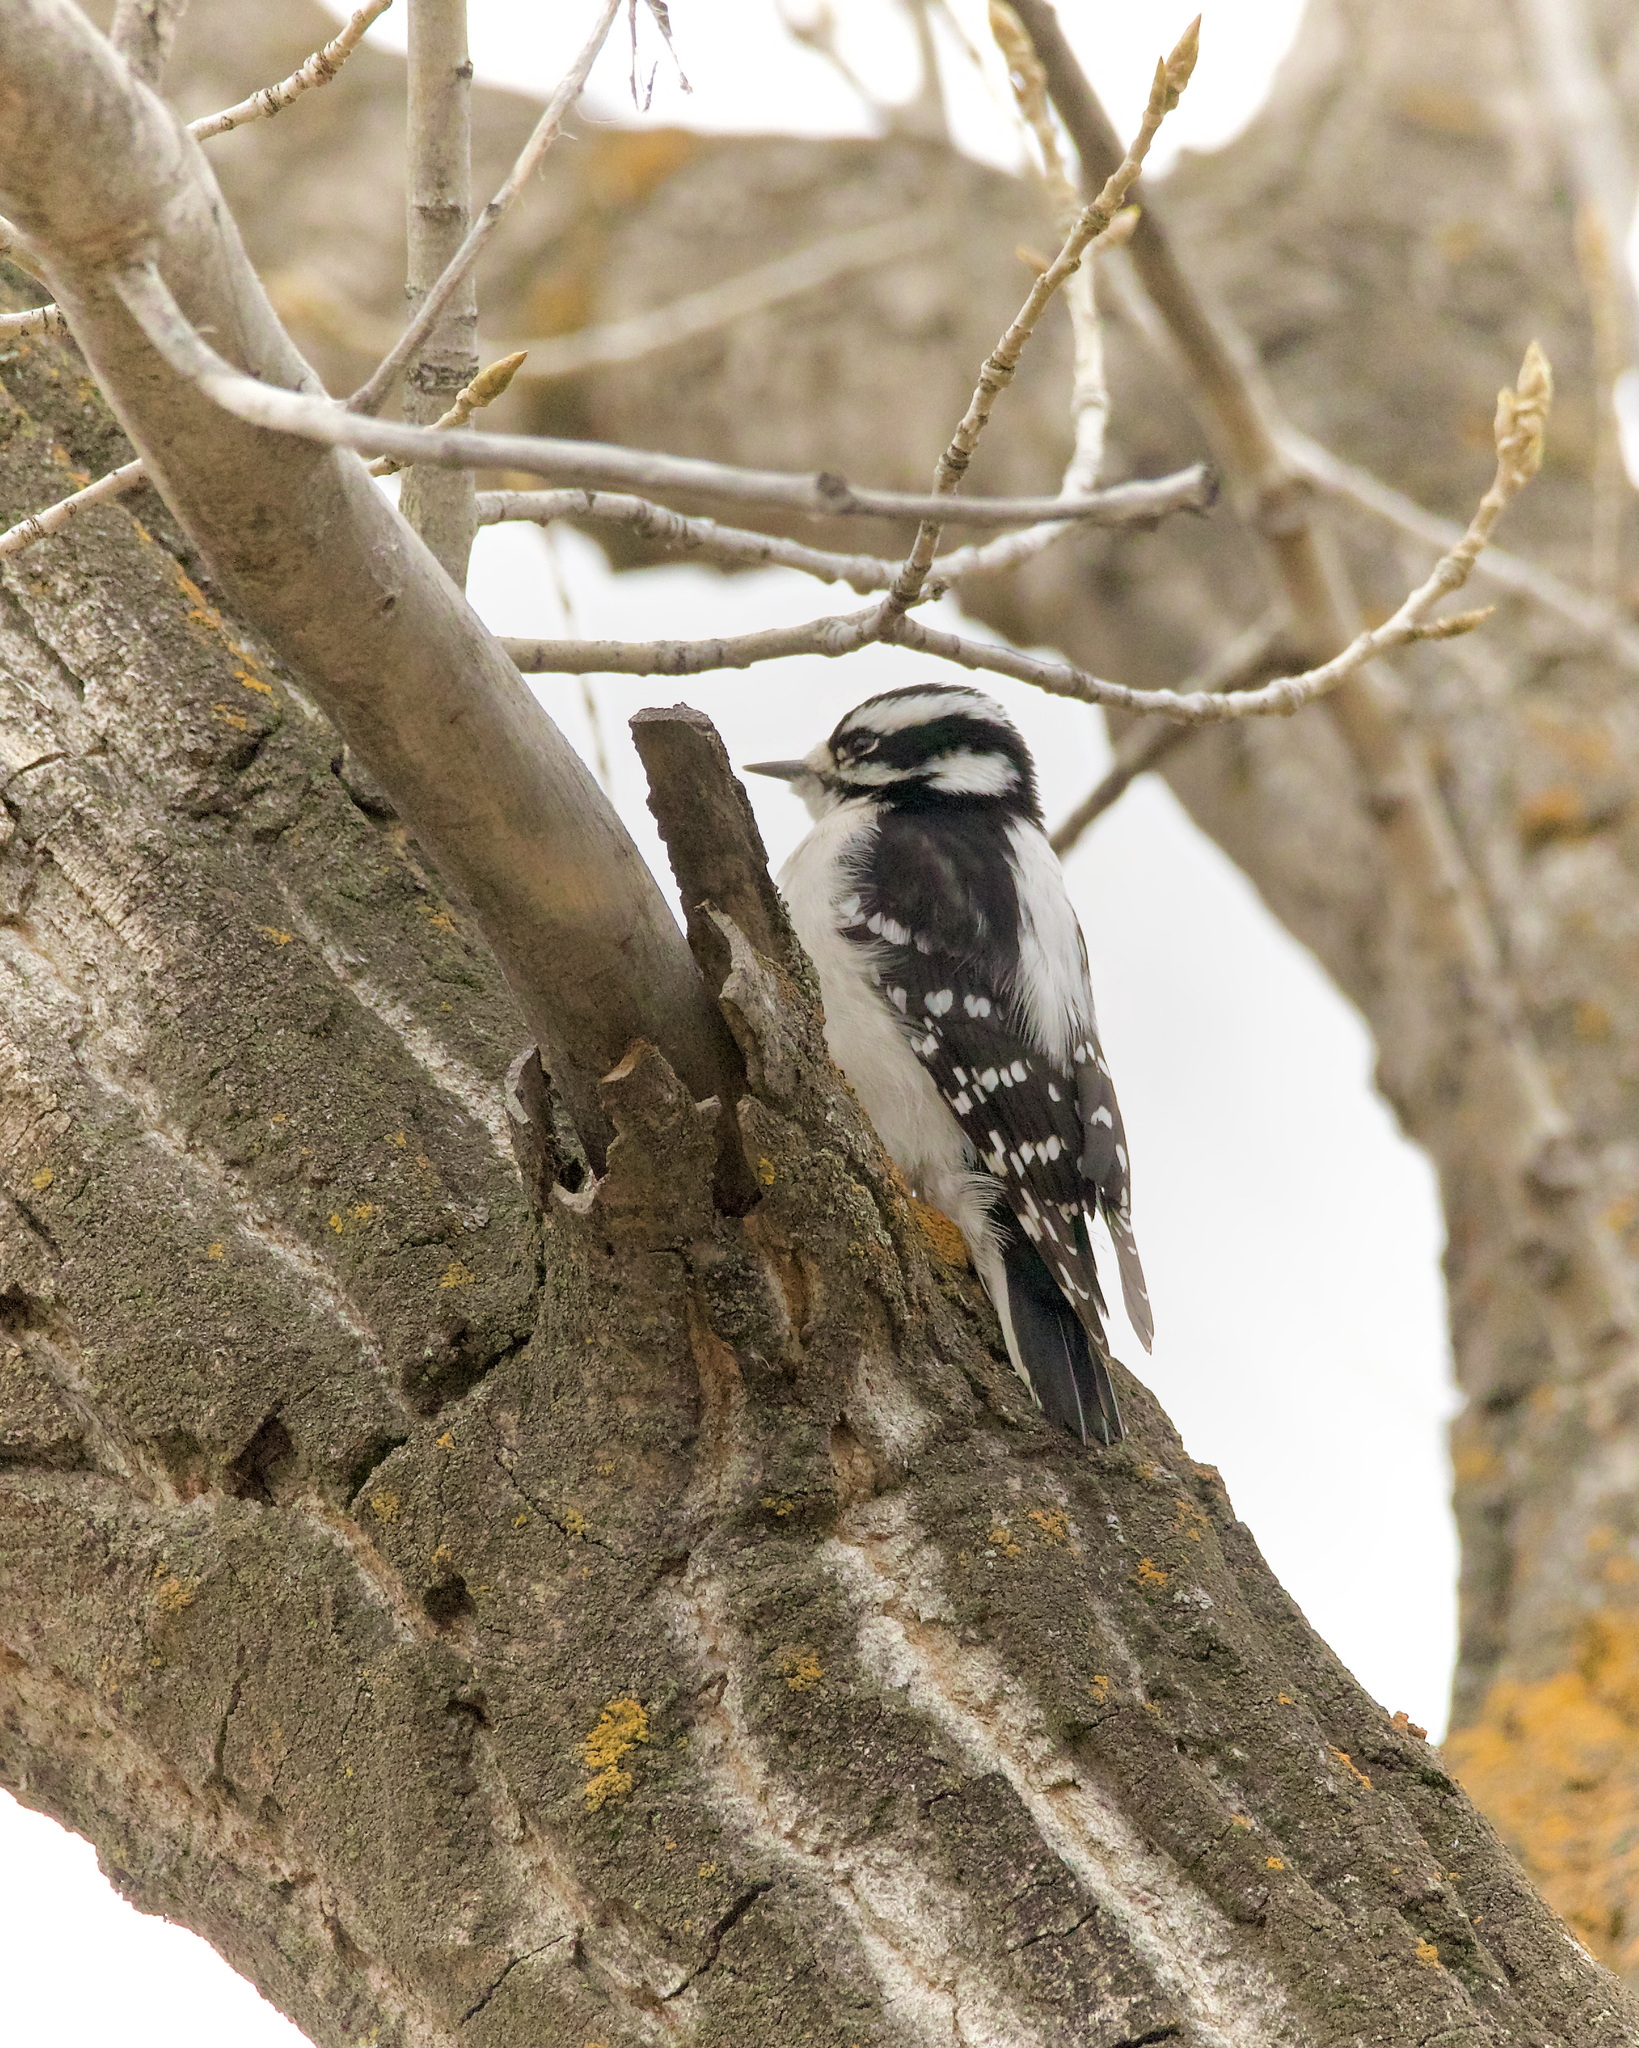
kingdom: Animalia
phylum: Chordata
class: Aves
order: Piciformes
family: Picidae
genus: Dryobates
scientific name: Dryobates pubescens
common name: Downy woodpecker
